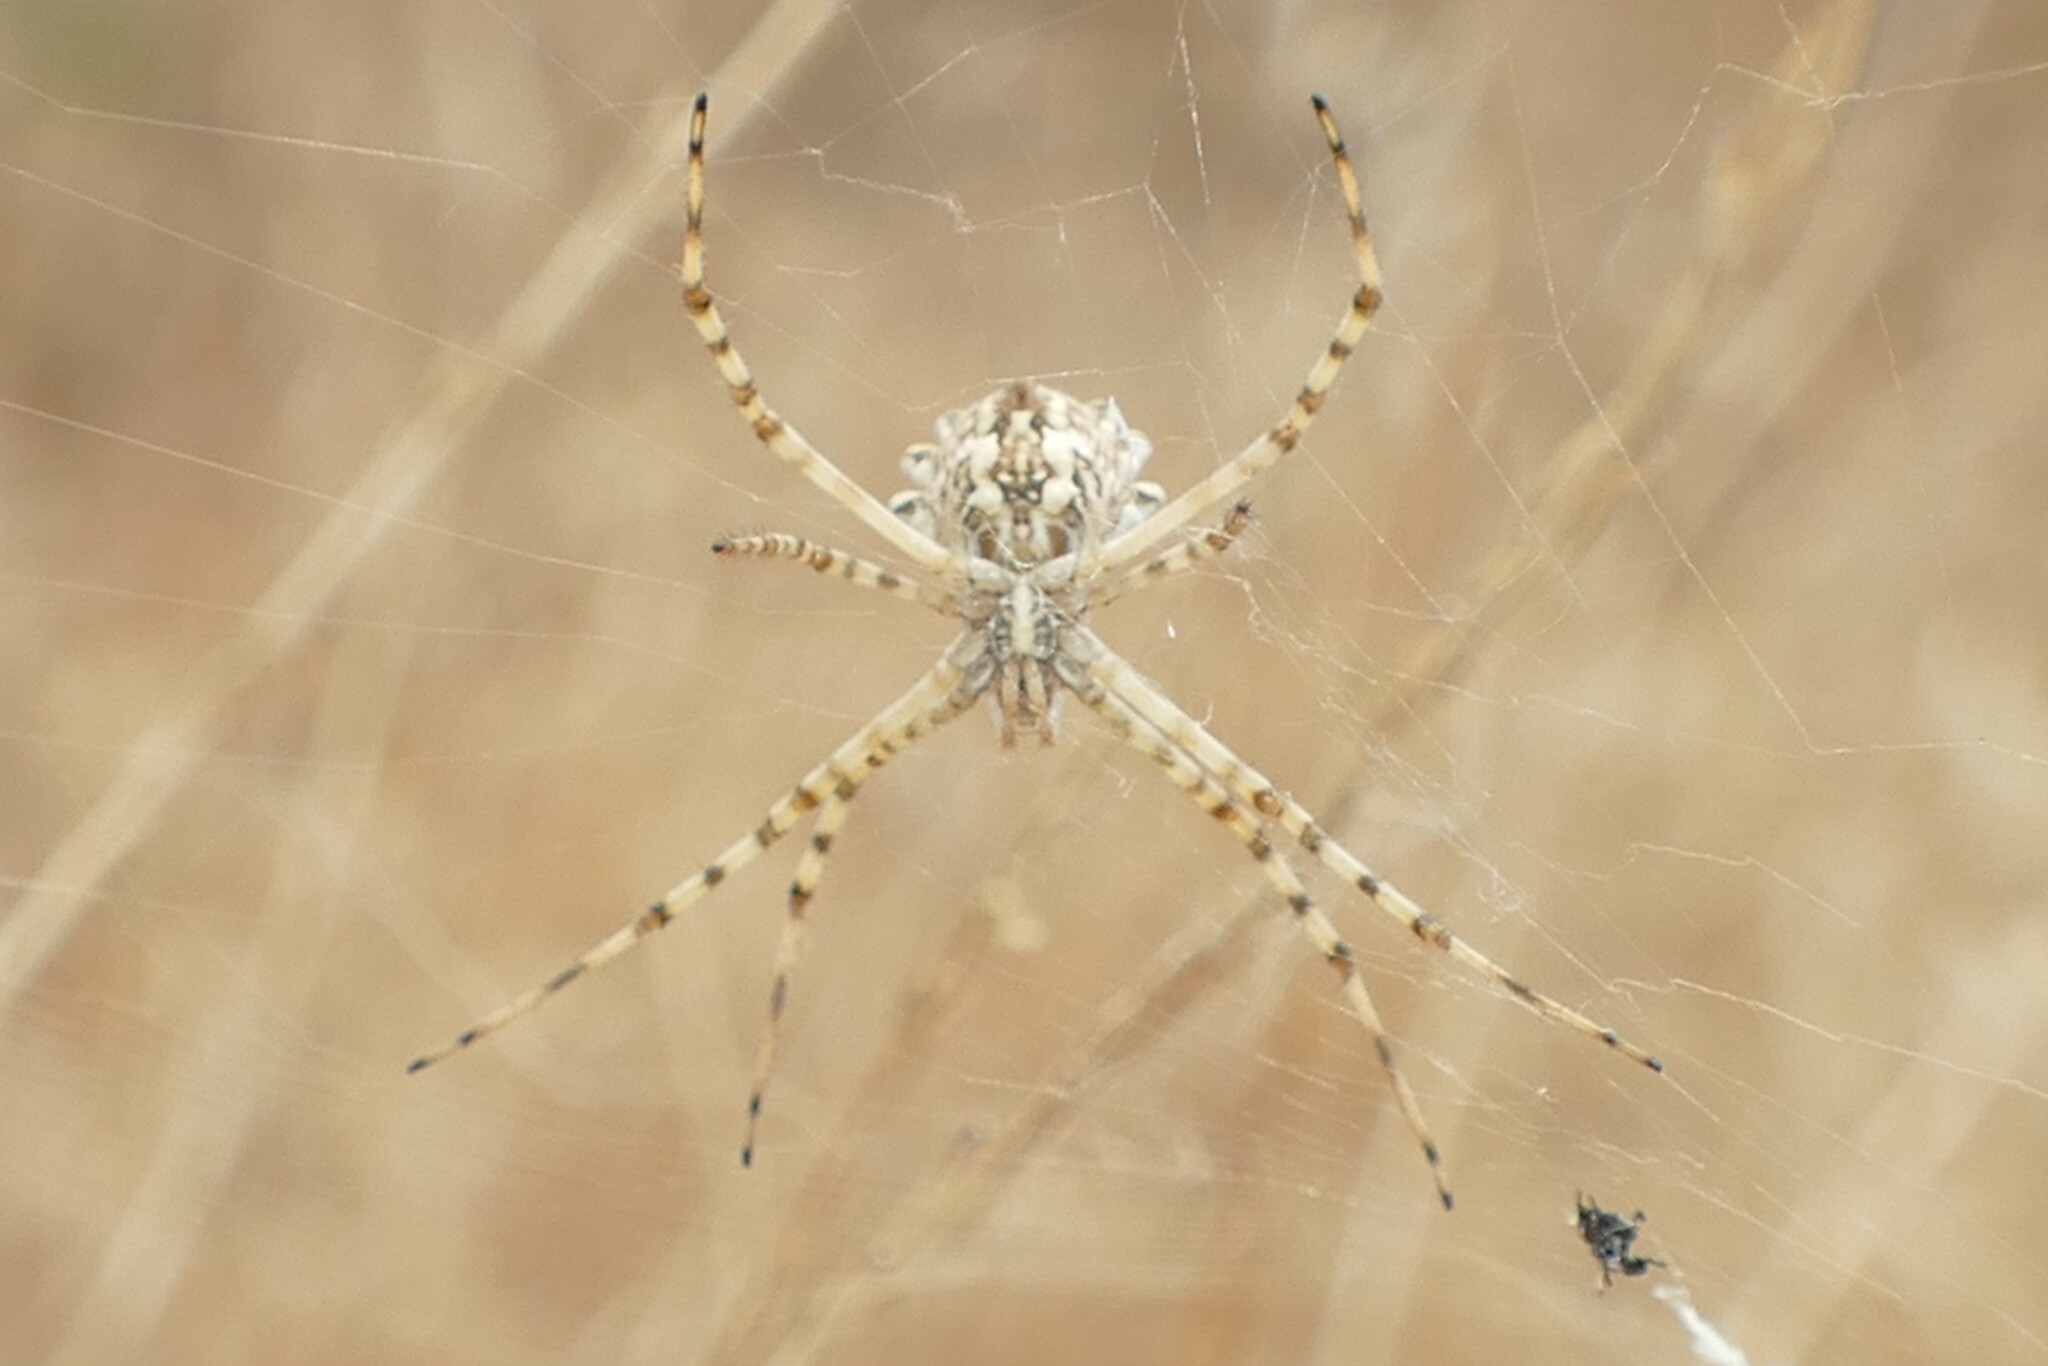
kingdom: Animalia
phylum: Arthropoda
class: Arachnida
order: Araneae
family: Araneidae
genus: Argiope
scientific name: Argiope lobata
